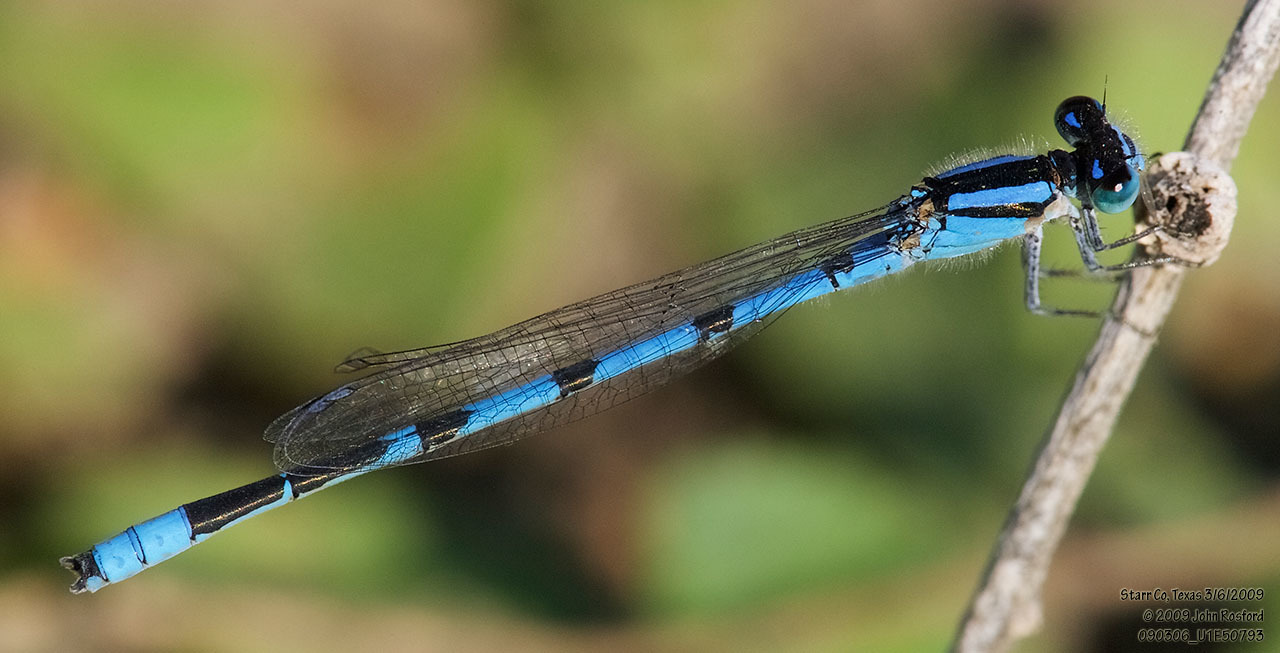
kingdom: Animalia
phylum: Arthropoda
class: Insecta
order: Odonata
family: Coenagrionidae
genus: Enallagma
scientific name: Enallagma civile
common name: Damselfly
